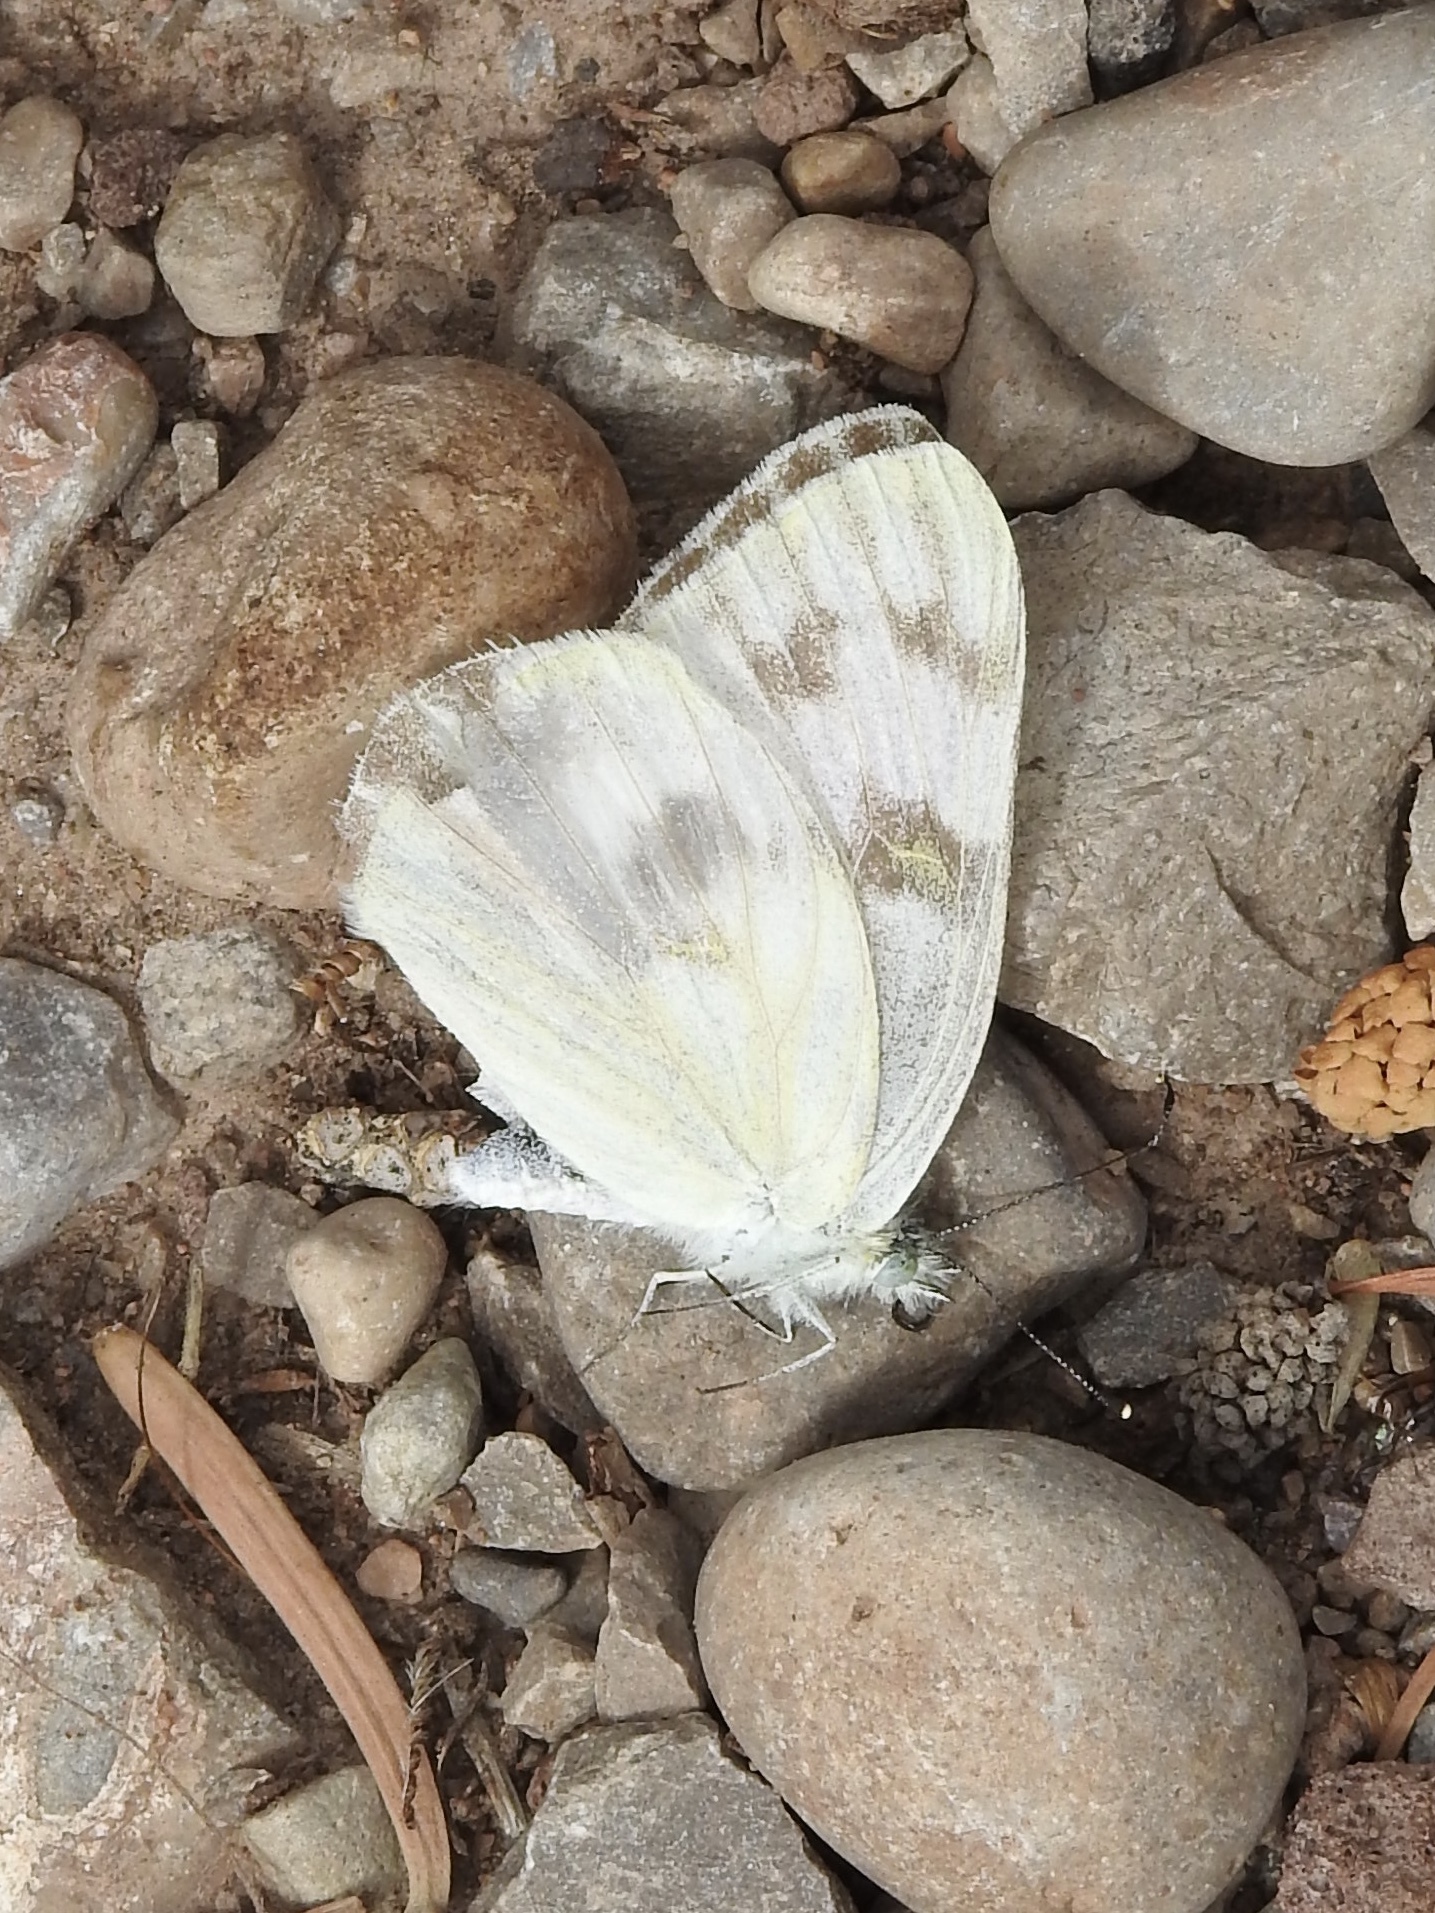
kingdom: Animalia
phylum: Arthropoda
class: Insecta
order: Lepidoptera
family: Pieridae
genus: Pontia
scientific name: Pontia protodice
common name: Checkered white
